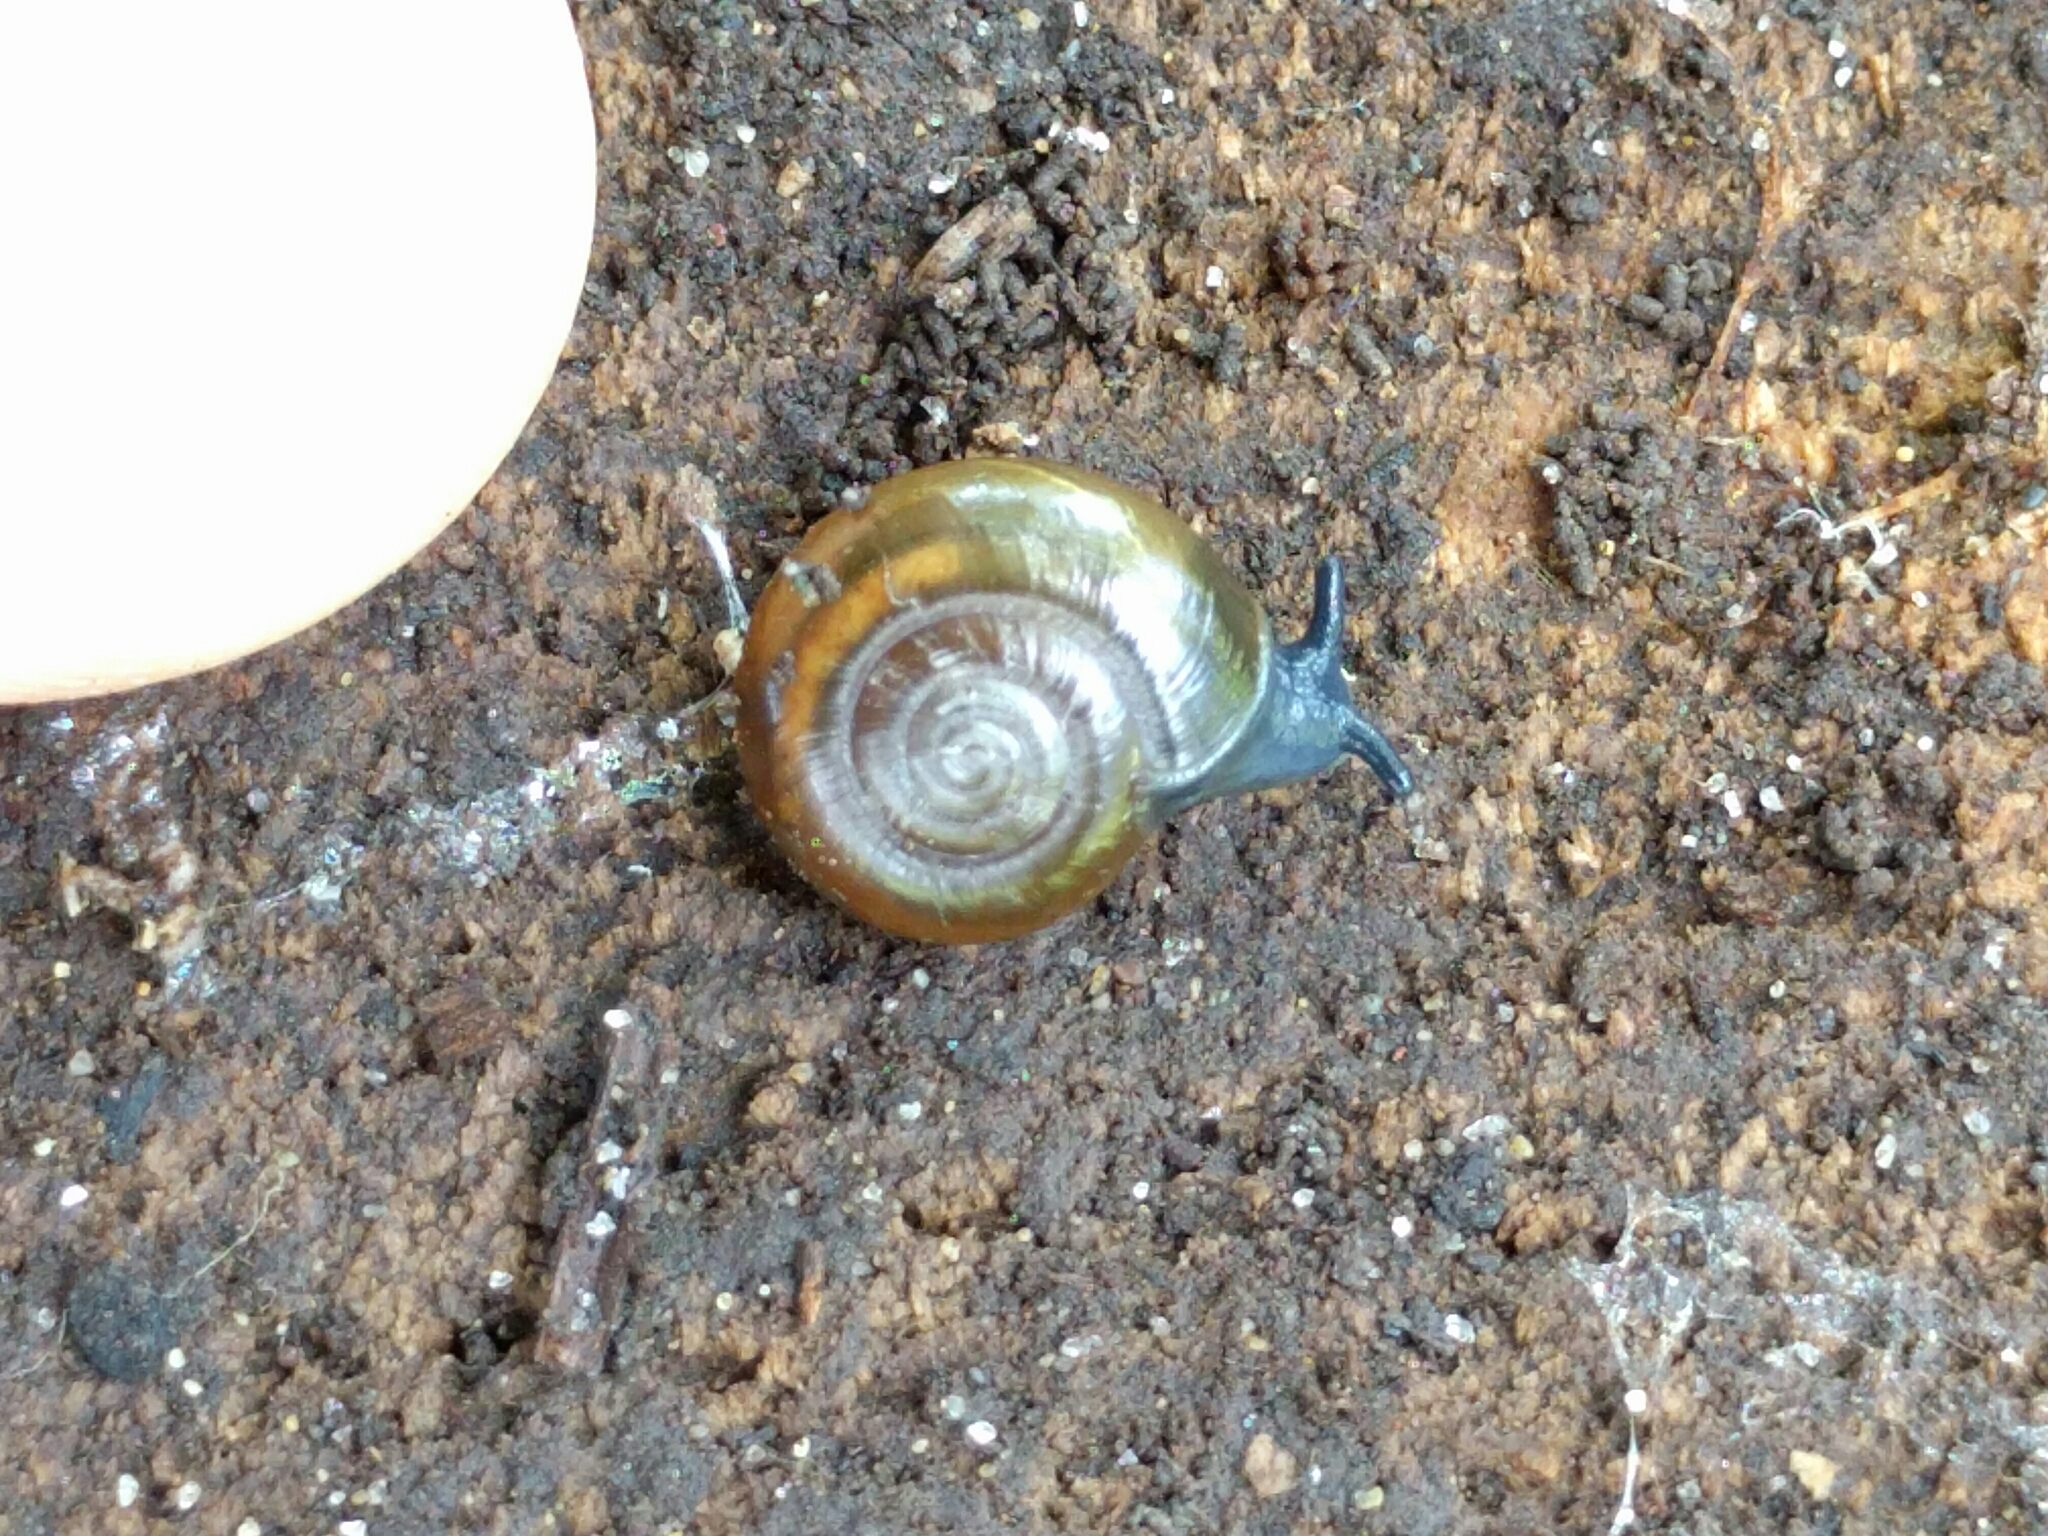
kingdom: Animalia
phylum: Mollusca
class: Gastropoda
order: Stylommatophora
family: Oxychilidae
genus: Oxychilus
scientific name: Oxychilus draparnaudi
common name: Draparnaud's glass snail
